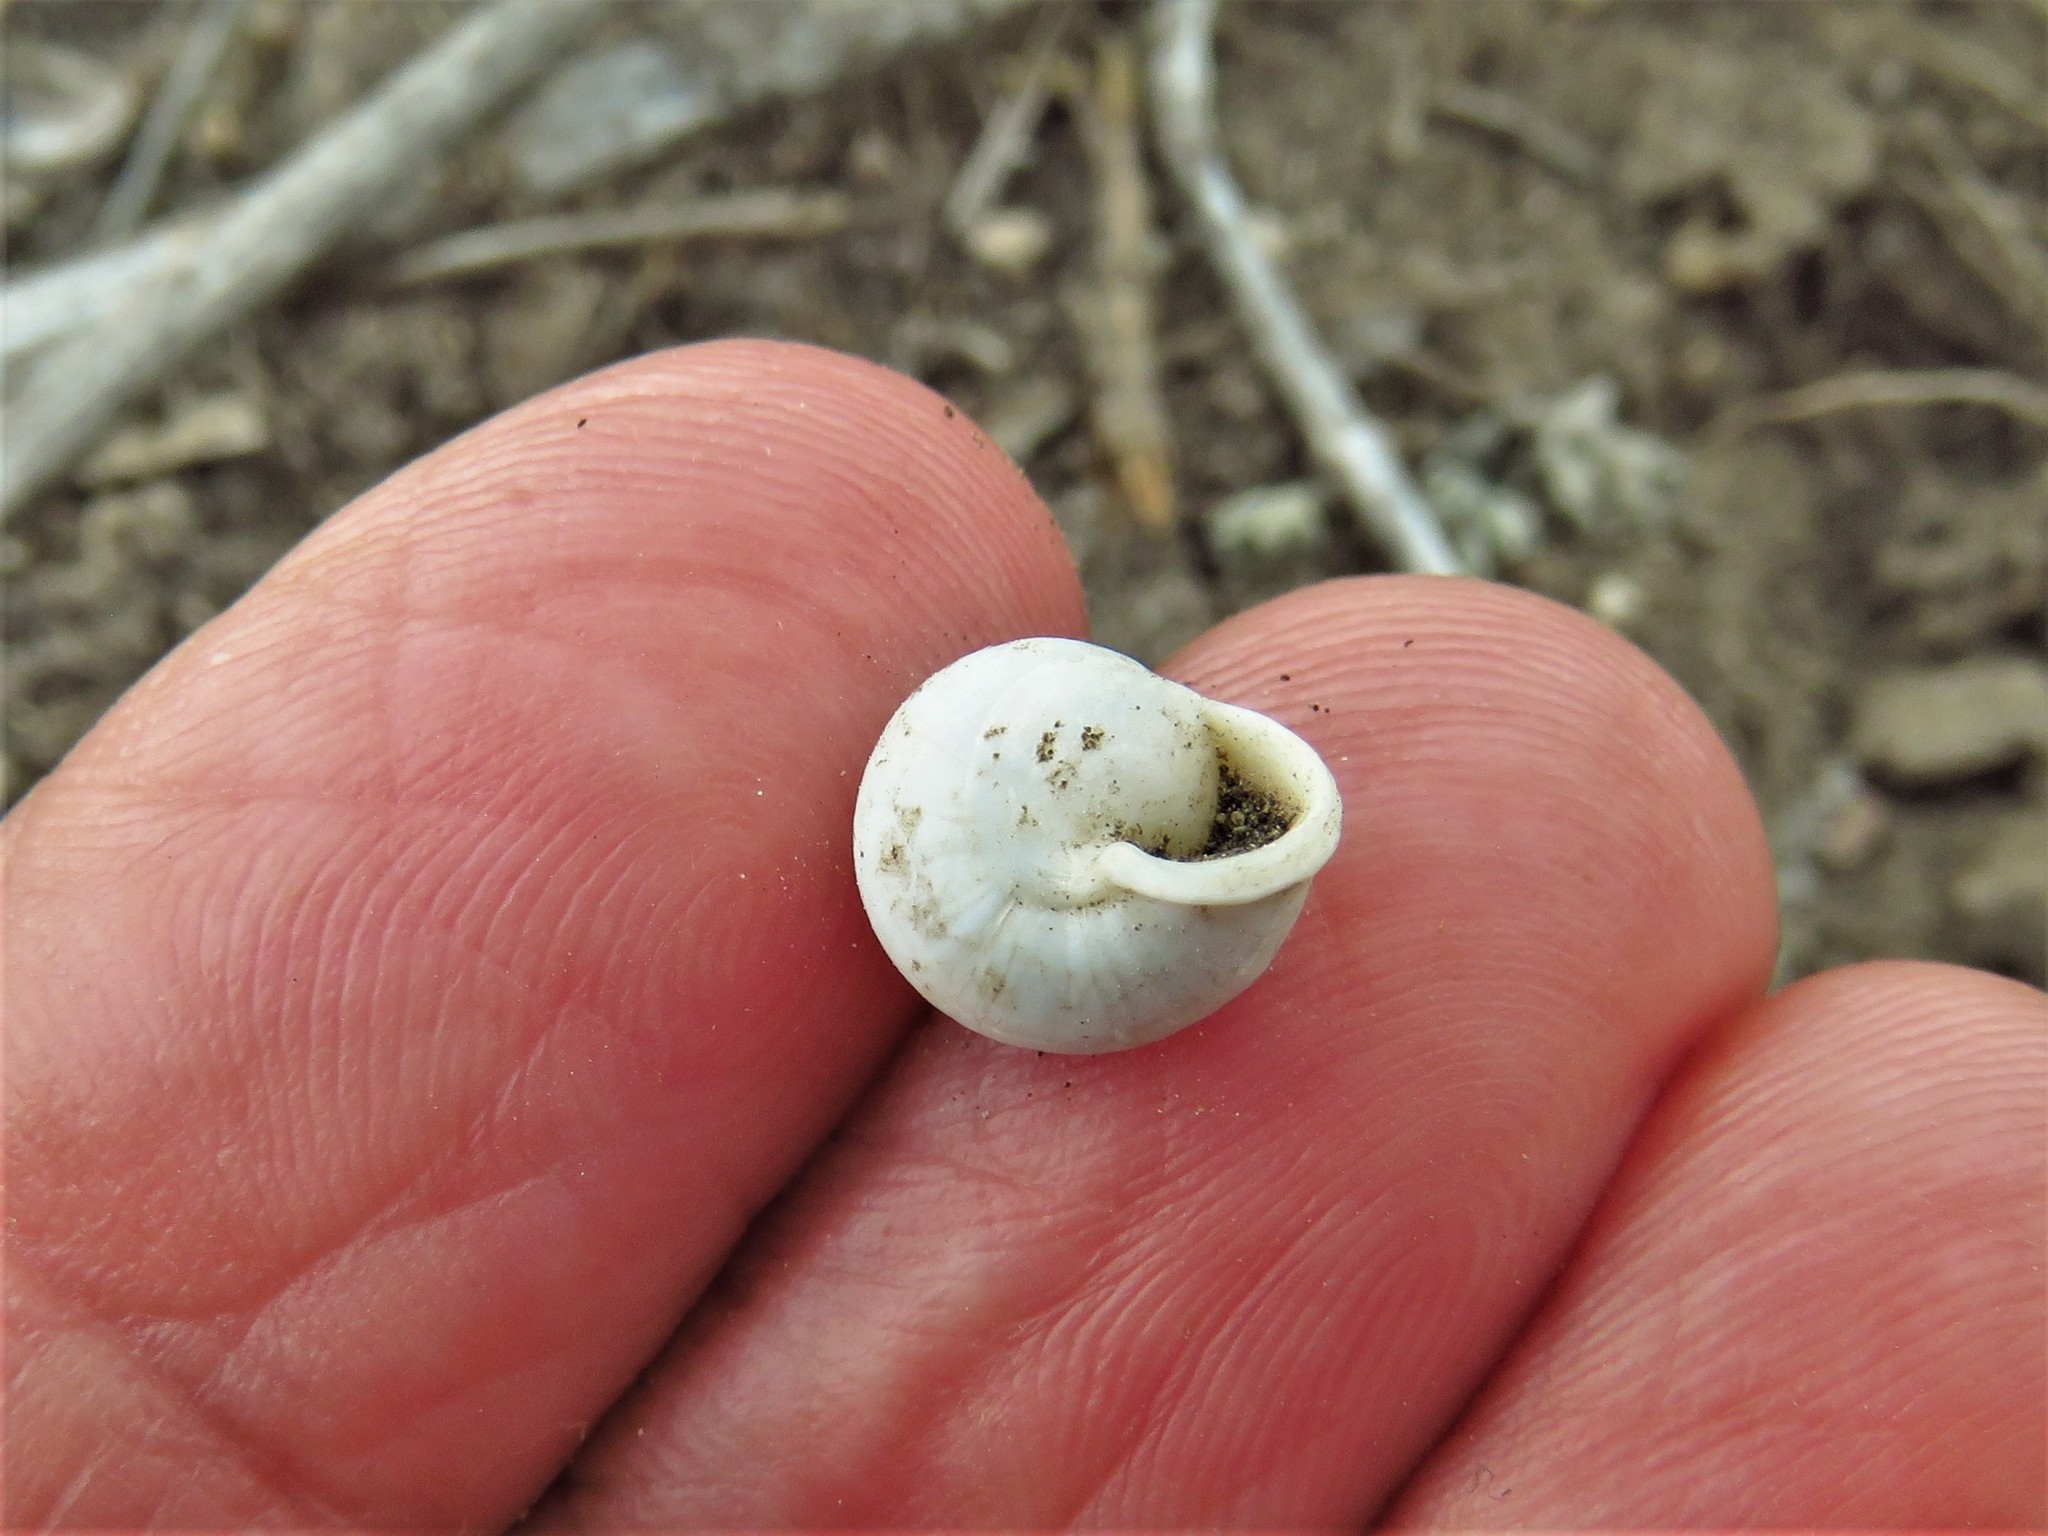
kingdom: Animalia
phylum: Mollusca
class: Gastropoda
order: Cycloneritida
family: Helicinidae
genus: Helicina
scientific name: Helicina orbiculata
